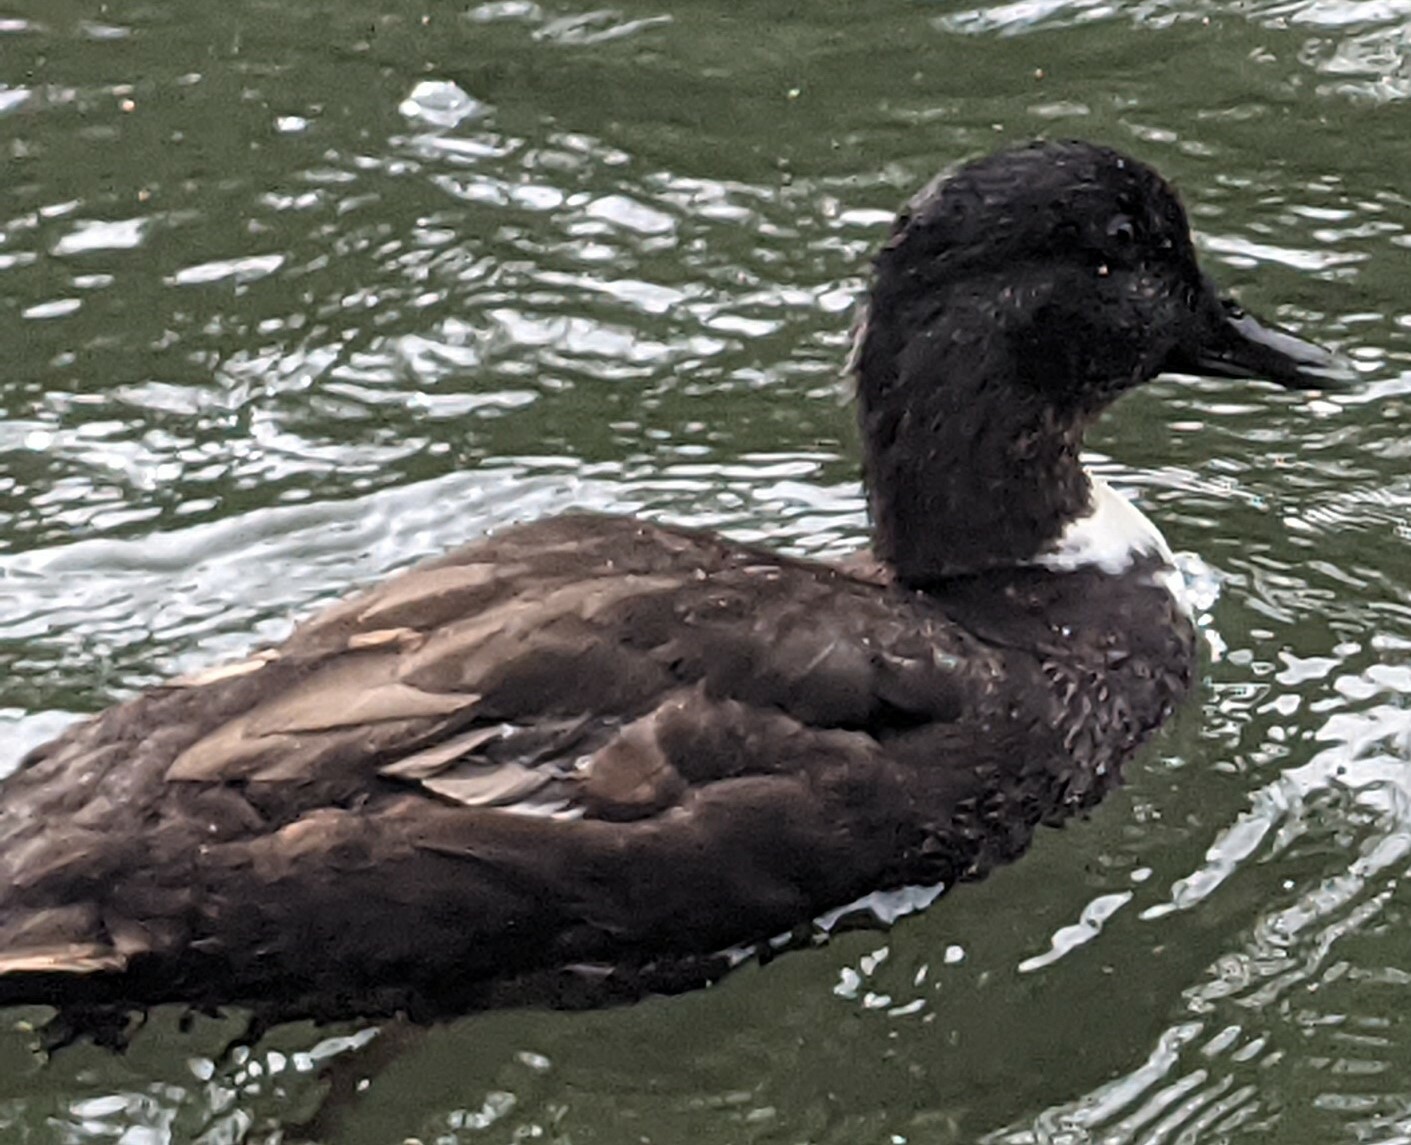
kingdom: Animalia
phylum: Chordata
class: Aves
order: Anseriformes
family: Anatidae
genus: Anas
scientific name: Anas platyrhynchos
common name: Mallard
